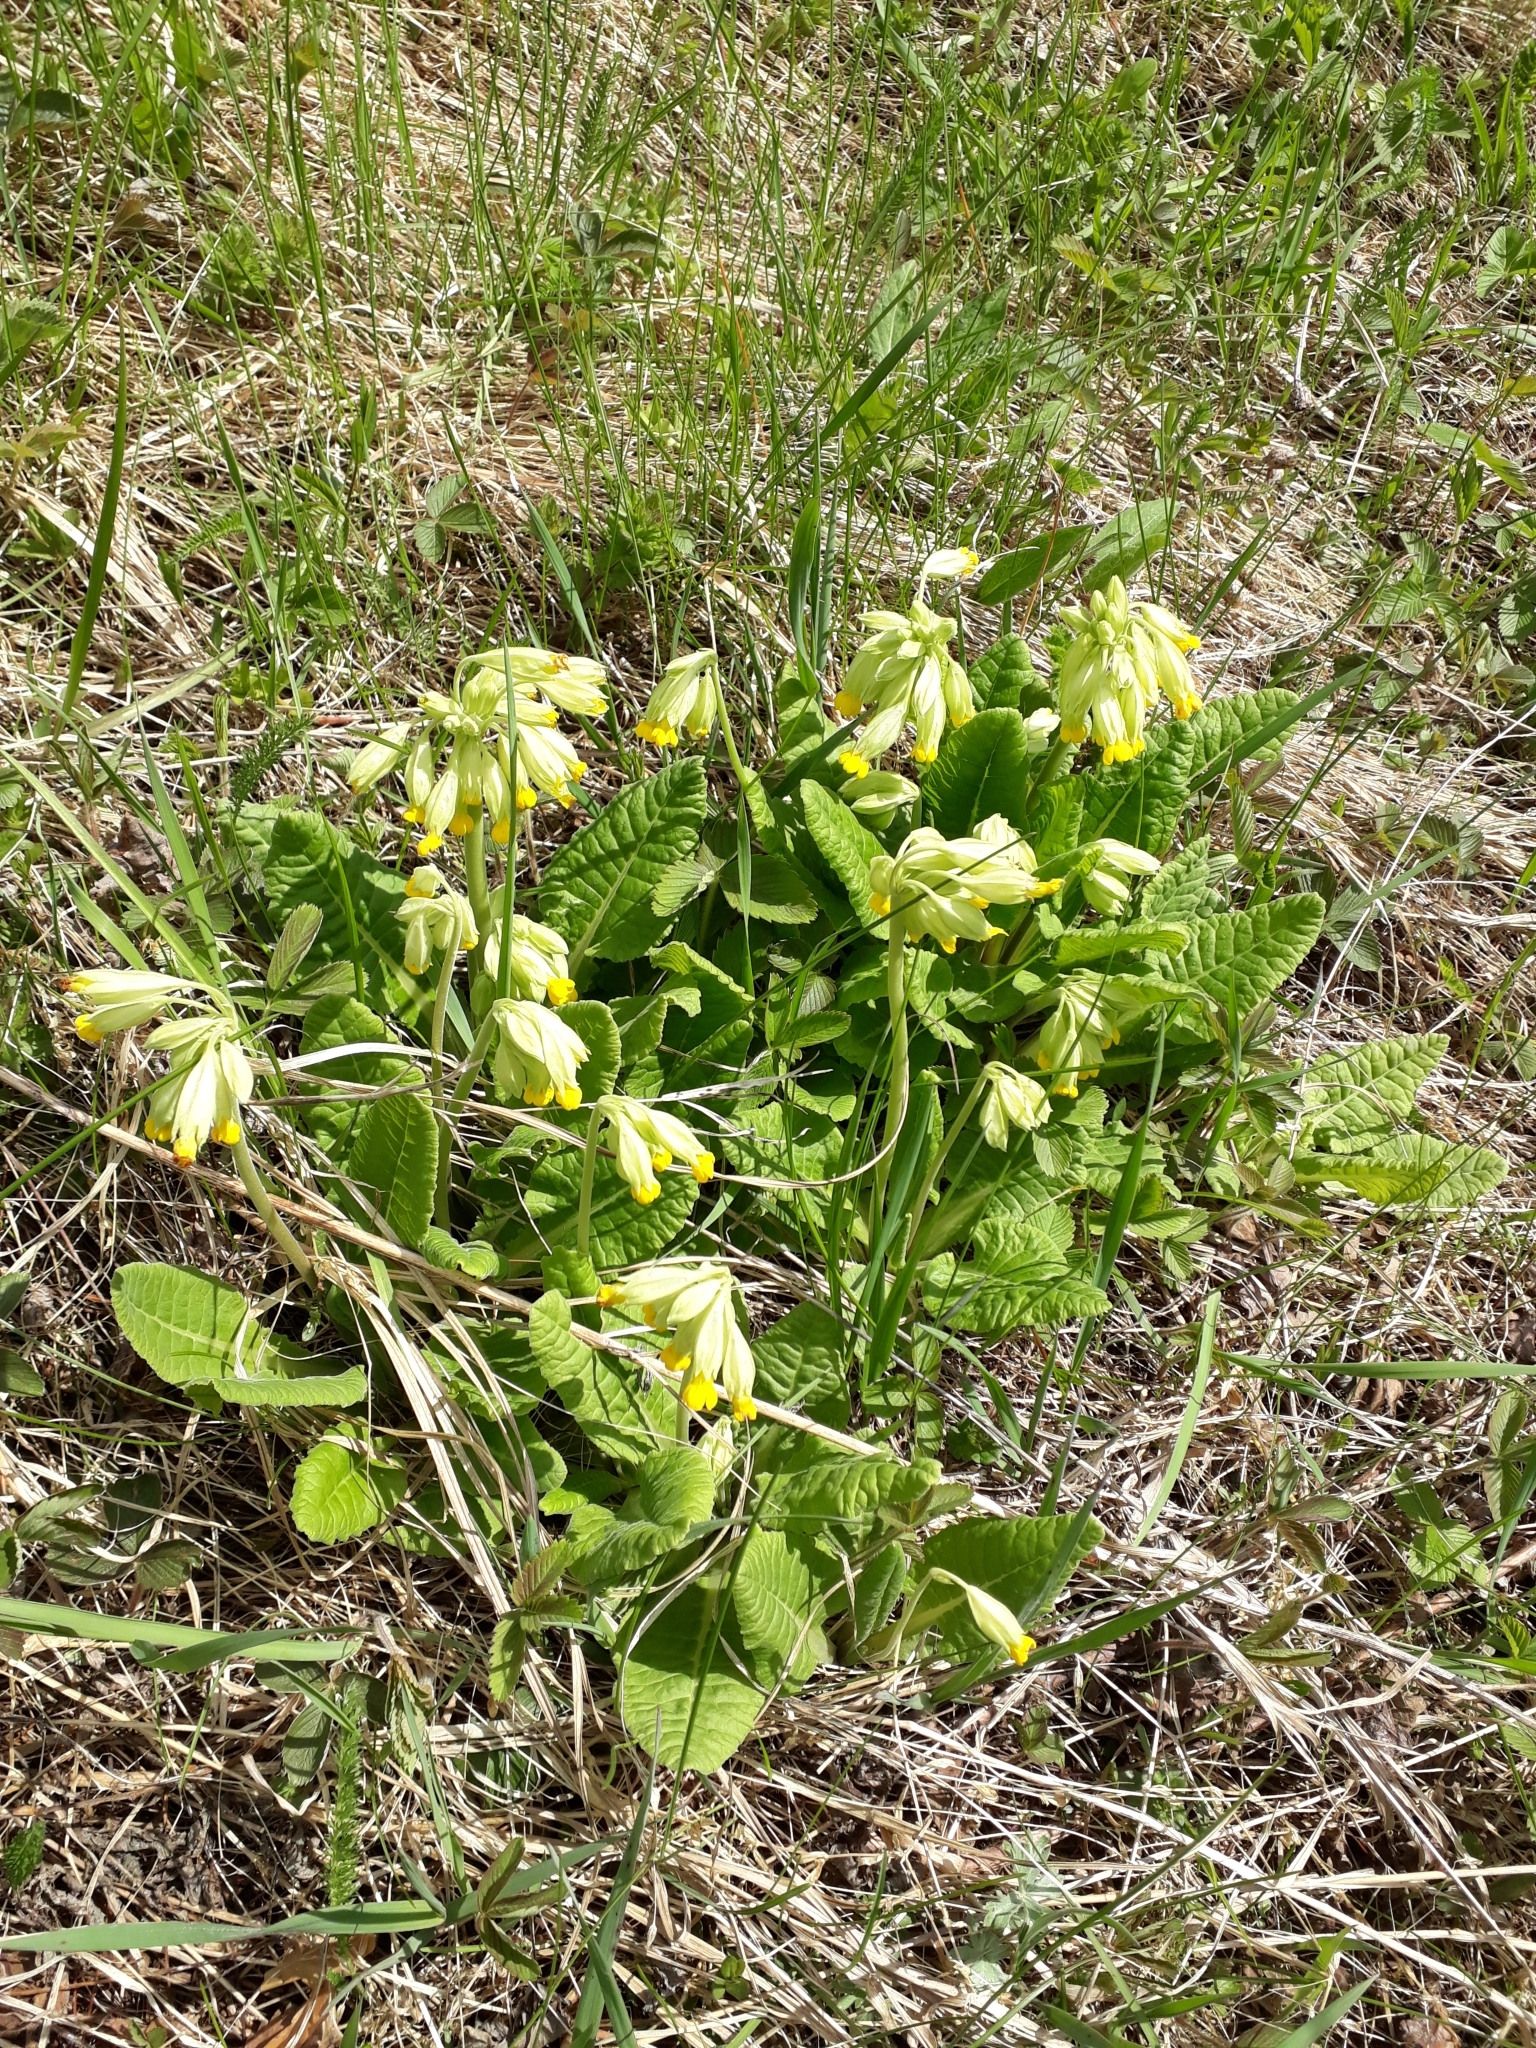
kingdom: Plantae
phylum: Tracheophyta
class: Magnoliopsida
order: Ericales
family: Primulaceae
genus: Primula
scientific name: Primula veris
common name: Cowslip
